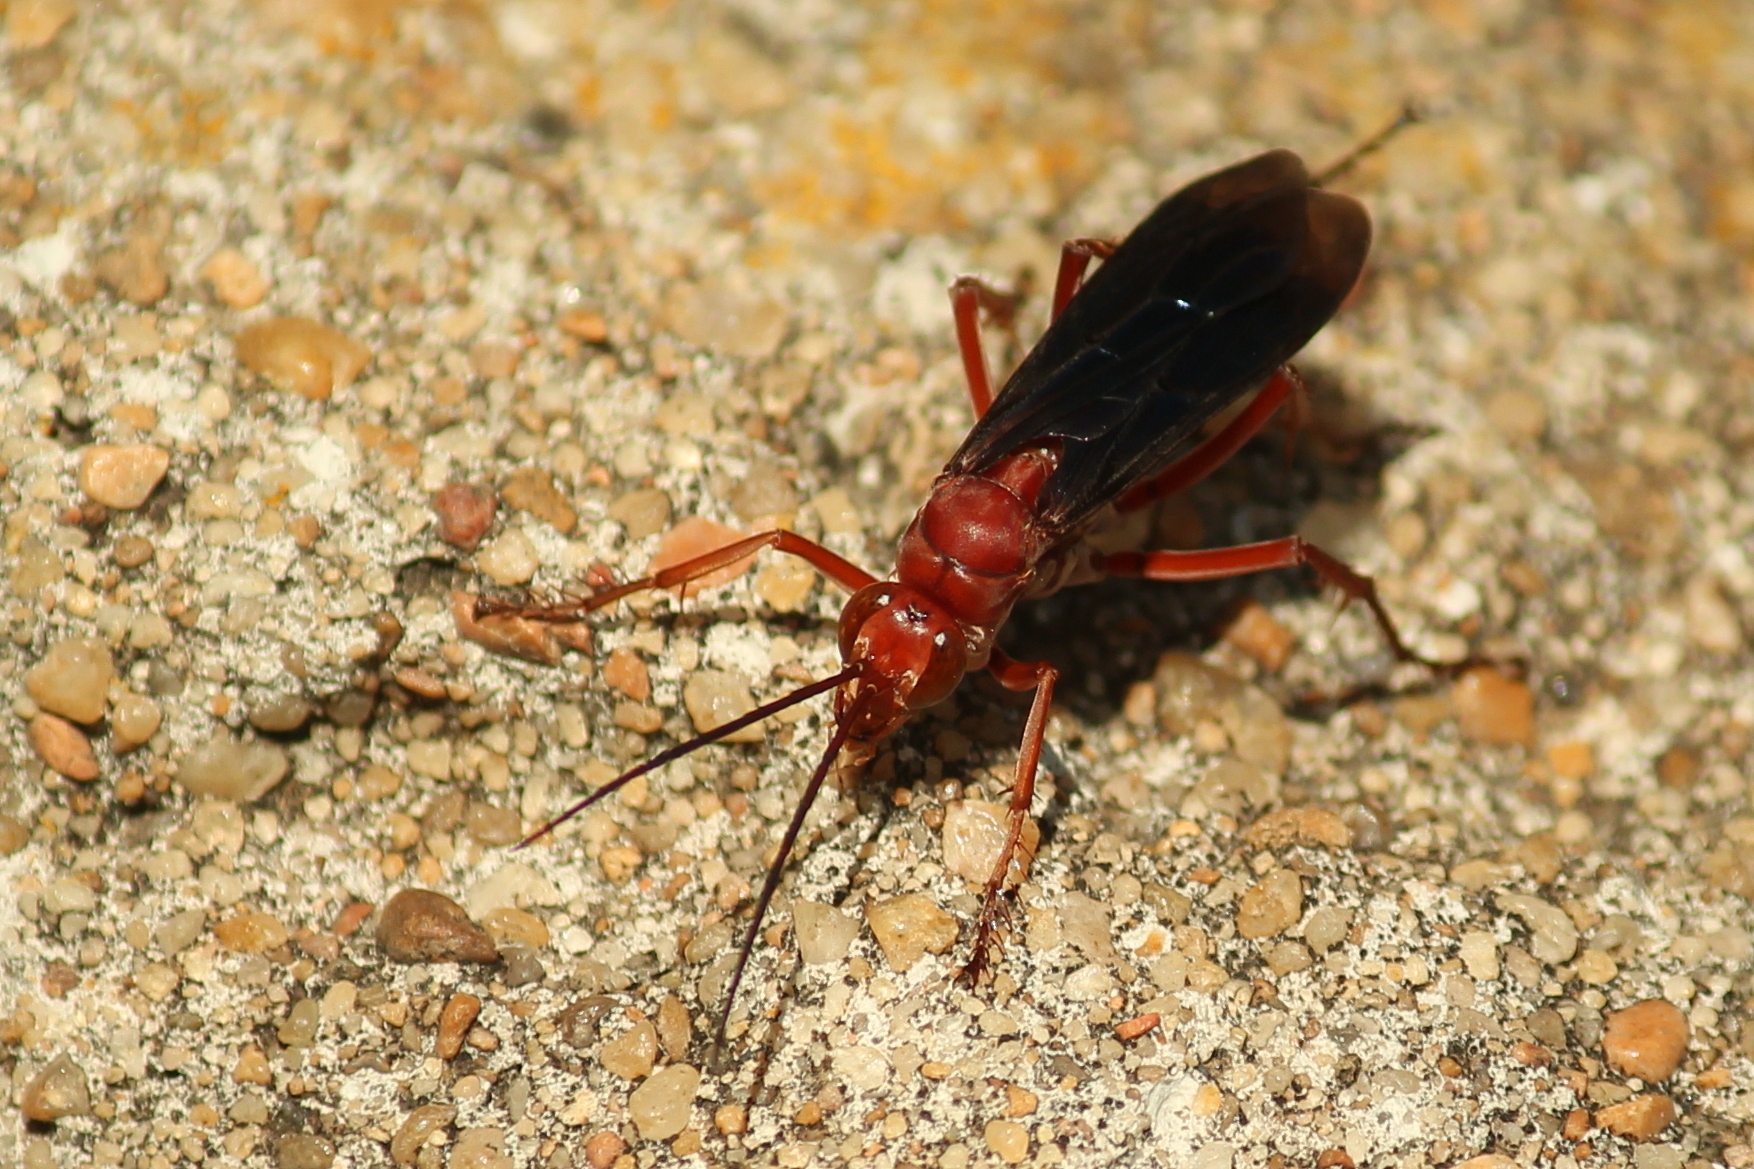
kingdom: Animalia
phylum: Arthropoda
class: Insecta
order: Hymenoptera
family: Pompilidae
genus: Tachypompilus
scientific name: Tachypompilus ferrugineus
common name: Rusty spider wasp
